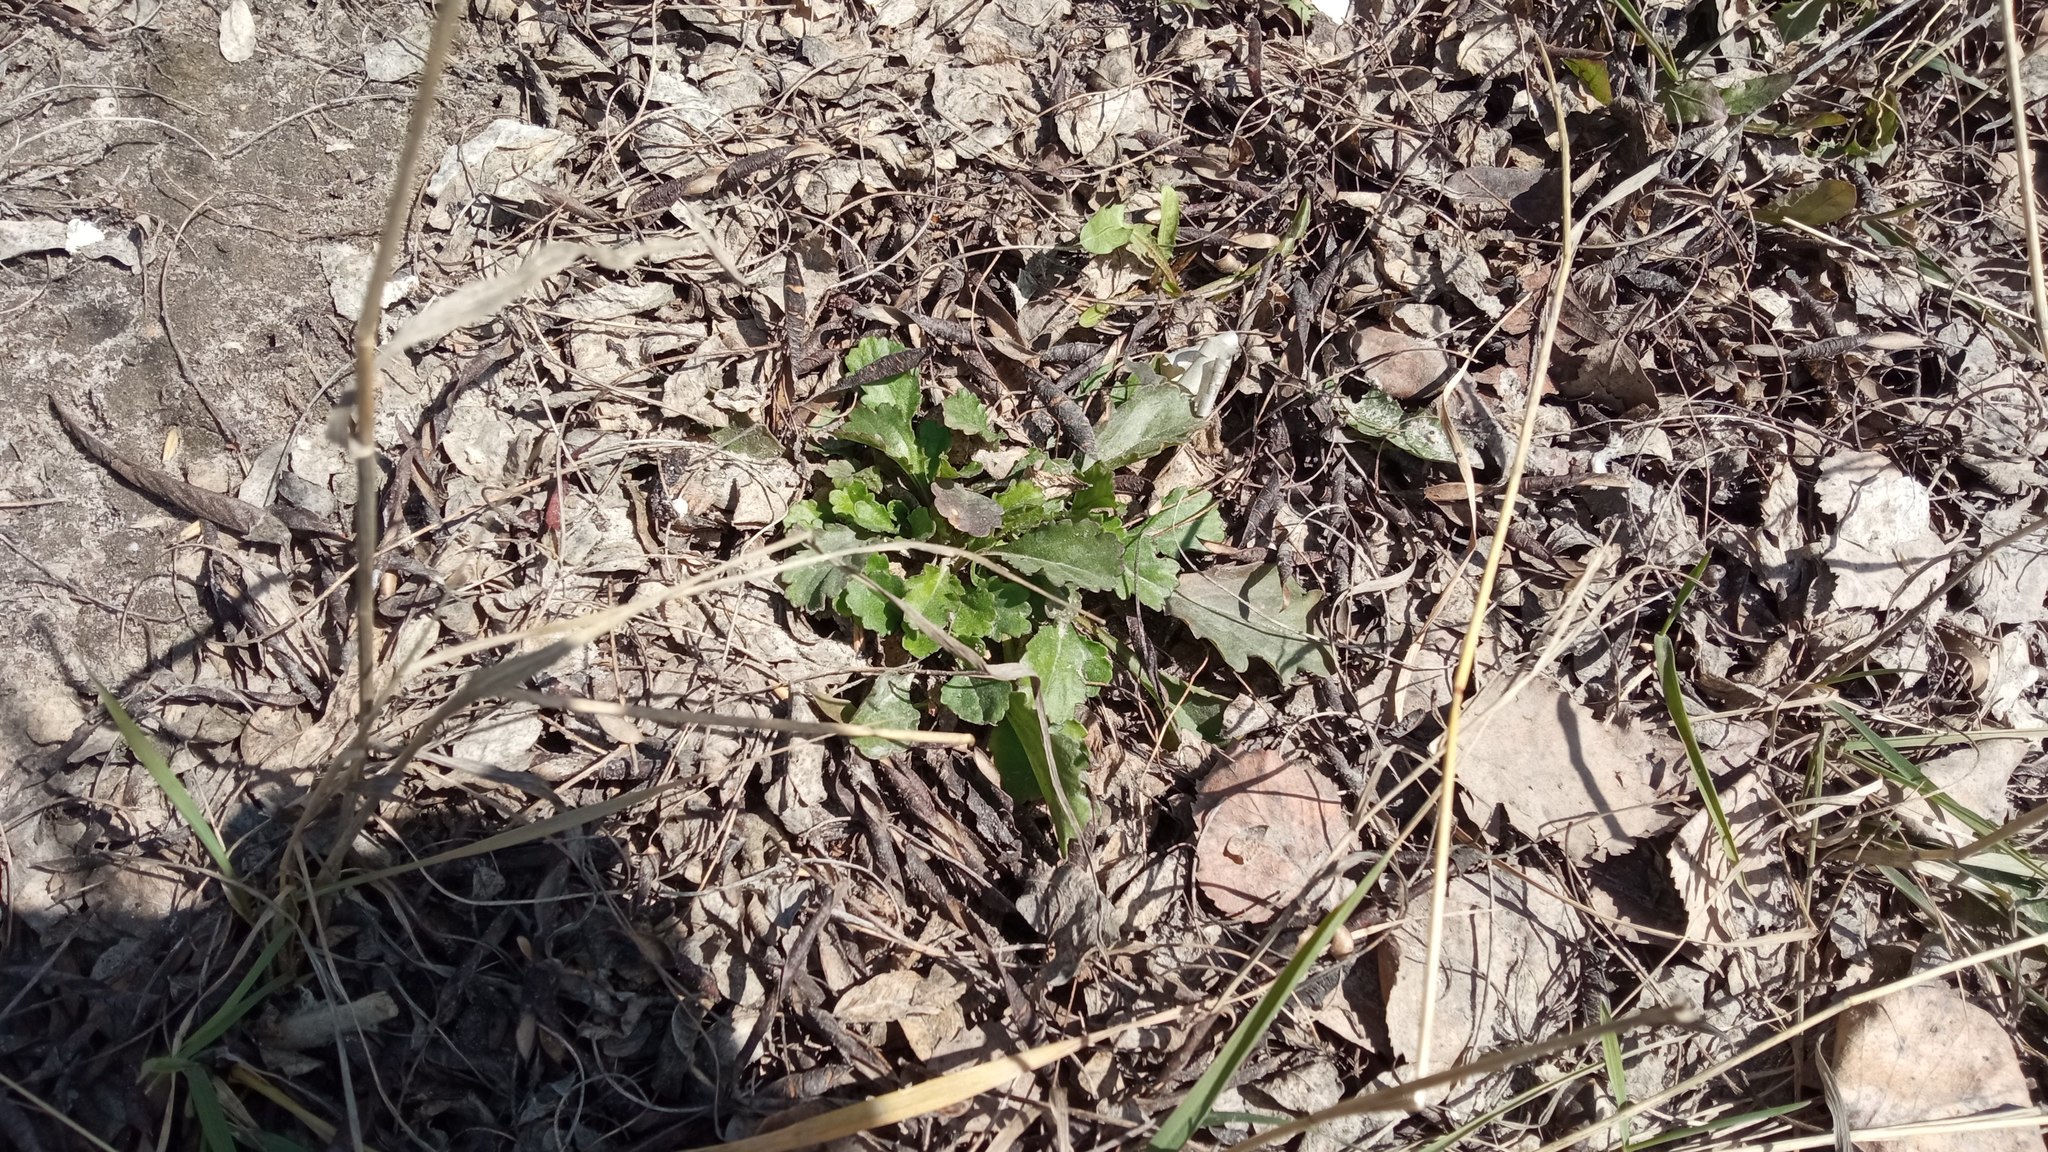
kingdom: Plantae
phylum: Tracheophyta
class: Magnoliopsida
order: Asterales
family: Asteraceae
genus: Leucanthemum
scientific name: Leucanthemum ircutianum
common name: Daisy
